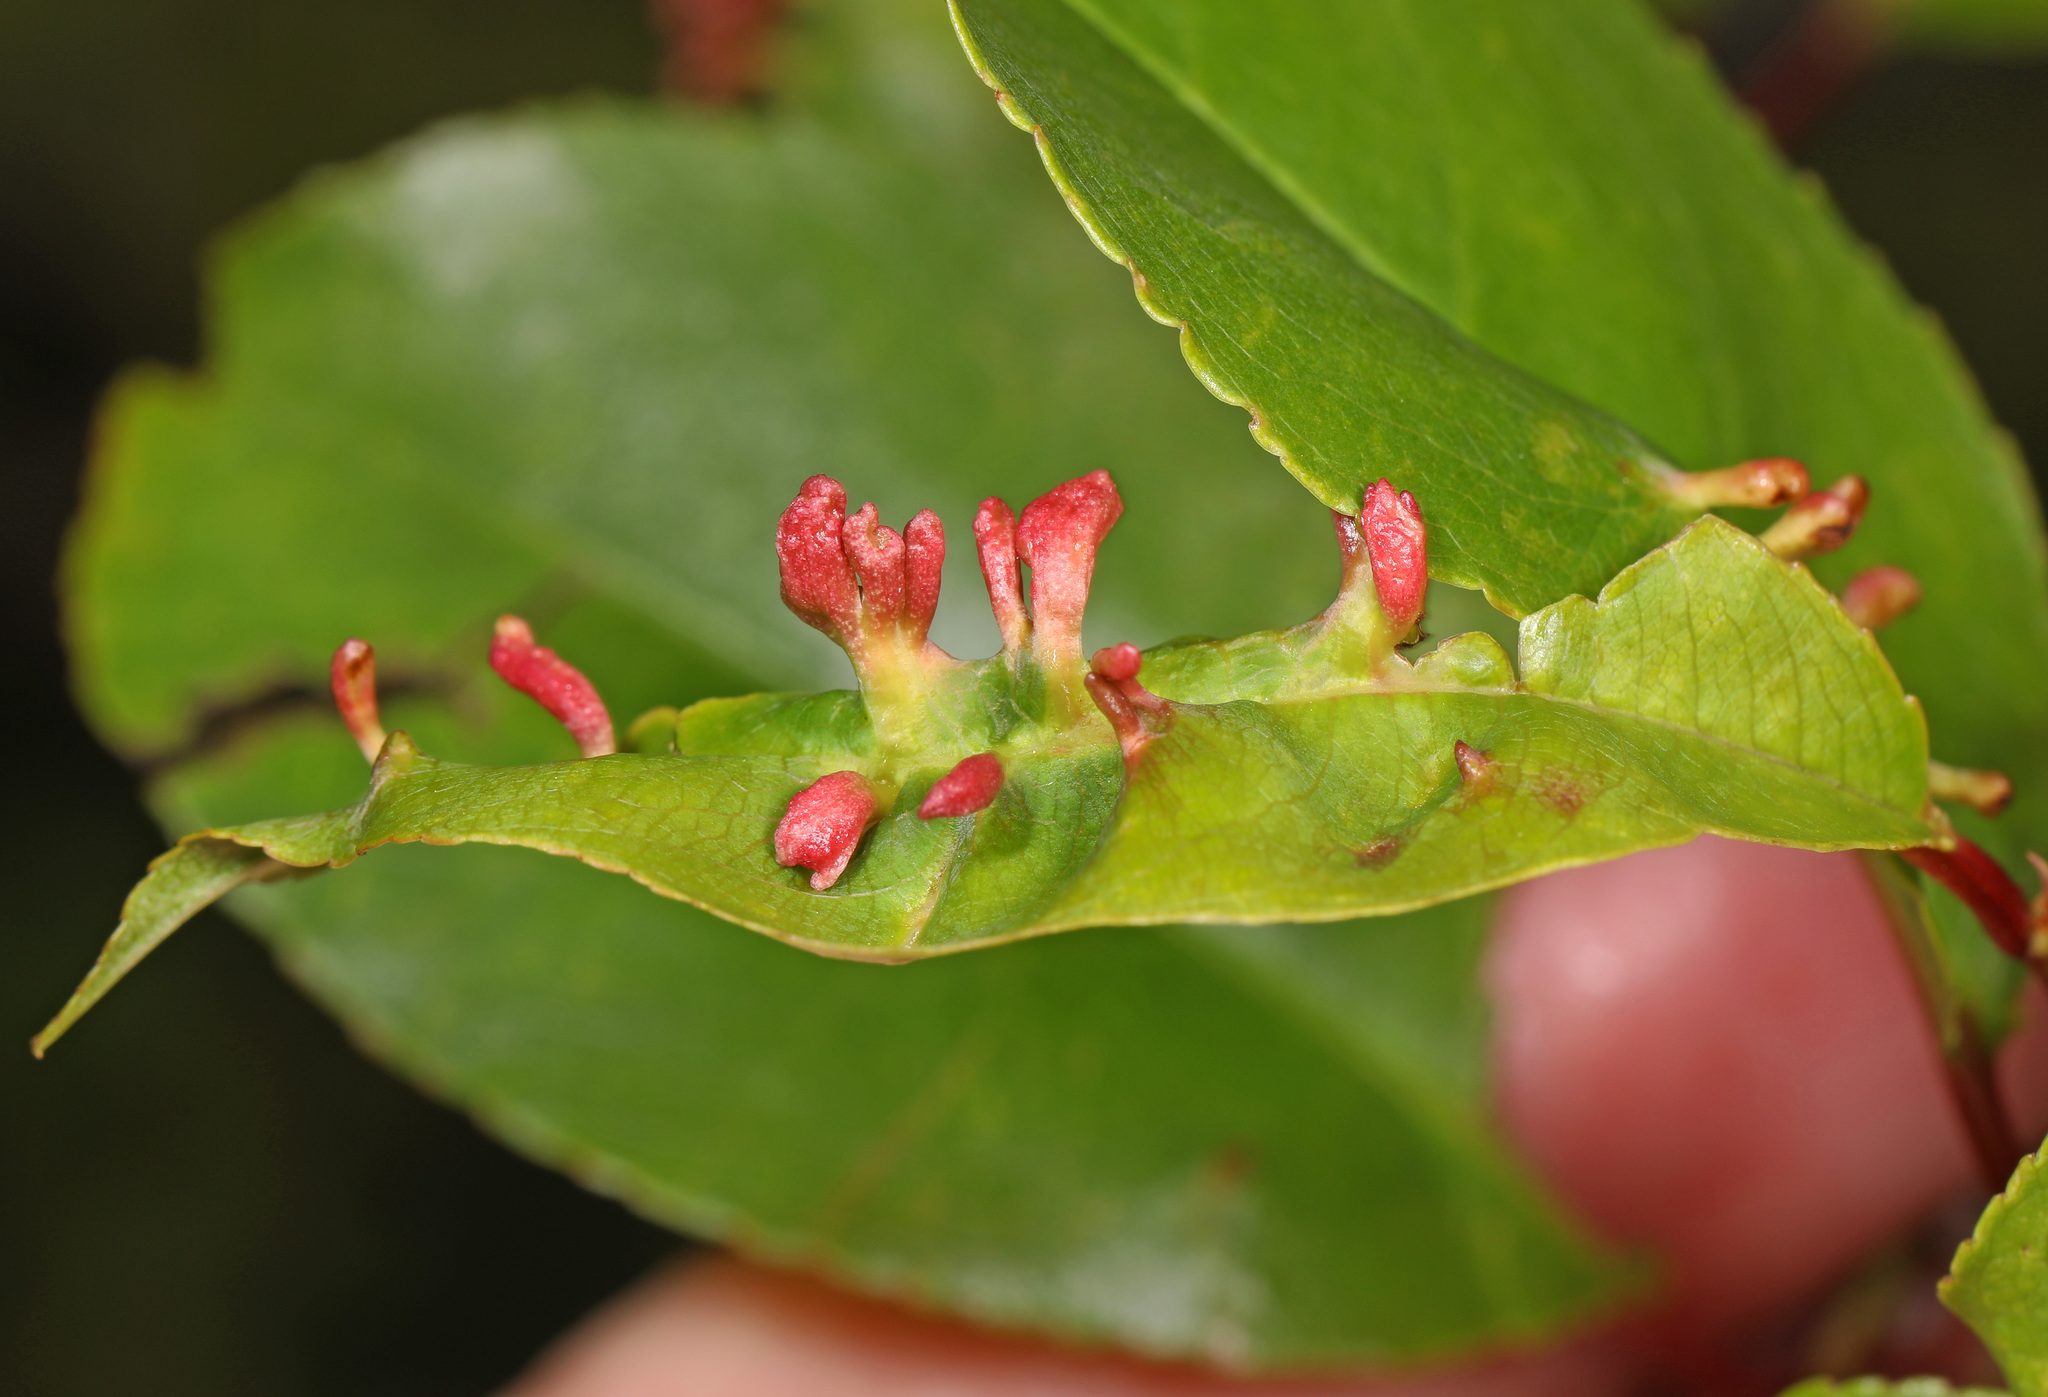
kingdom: Animalia
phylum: Arthropoda
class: Arachnida
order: Trombidiformes
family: Eriophyidae
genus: Eriophyes
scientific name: Eriophyes
